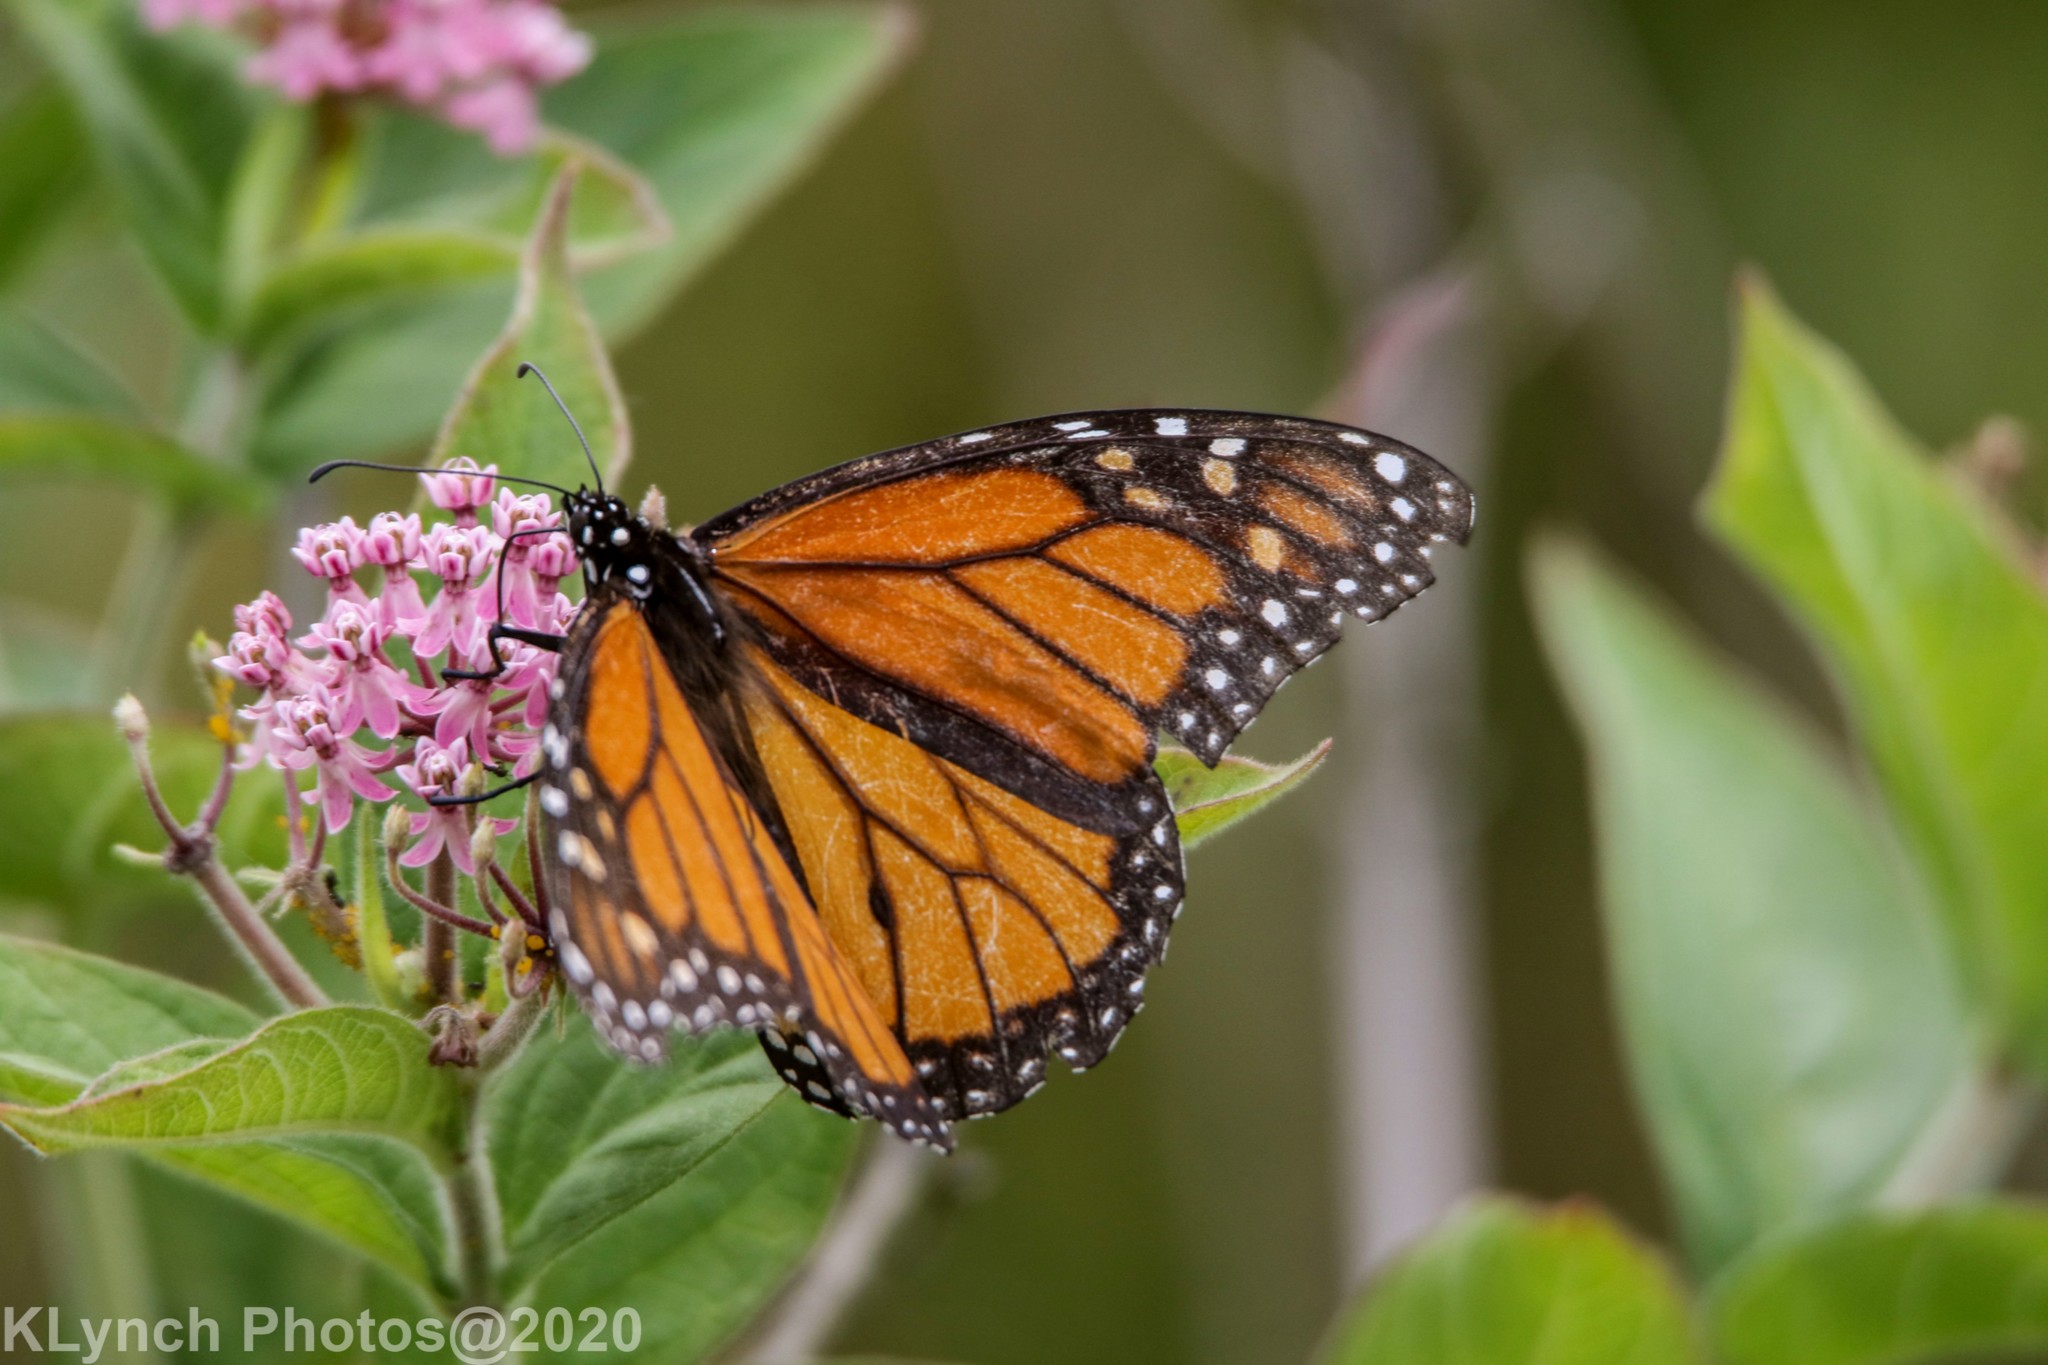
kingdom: Animalia
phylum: Arthropoda
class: Insecta
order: Lepidoptera
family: Nymphalidae
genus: Danaus
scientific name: Danaus plexippus
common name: Monarch
